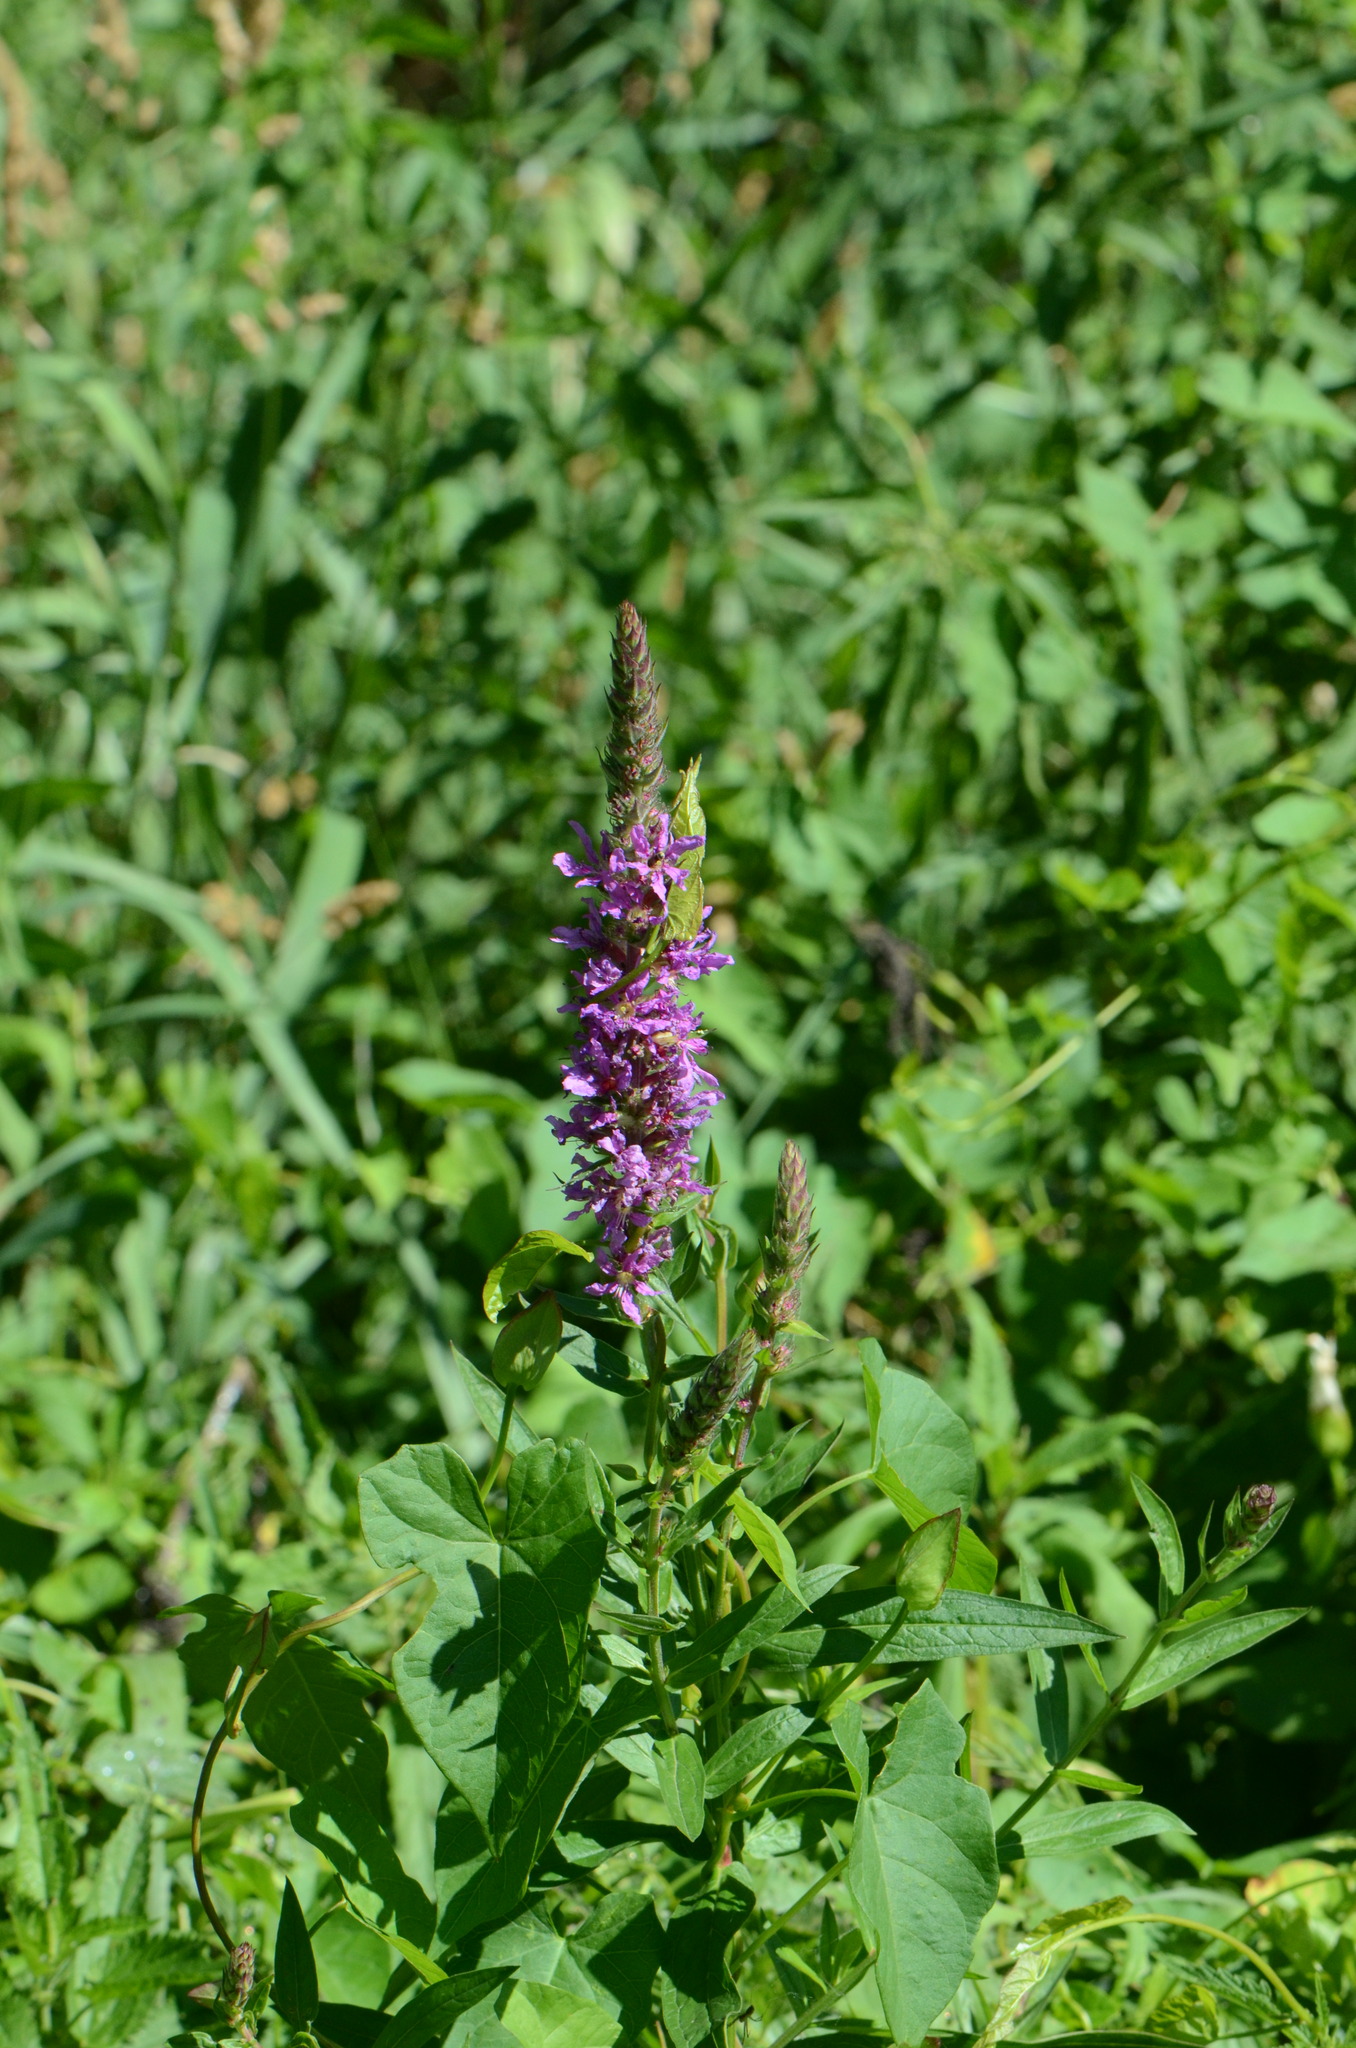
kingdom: Plantae
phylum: Tracheophyta
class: Magnoliopsida
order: Myrtales
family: Lythraceae
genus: Lythrum
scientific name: Lythrum salicaria
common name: Purple loosestrife
